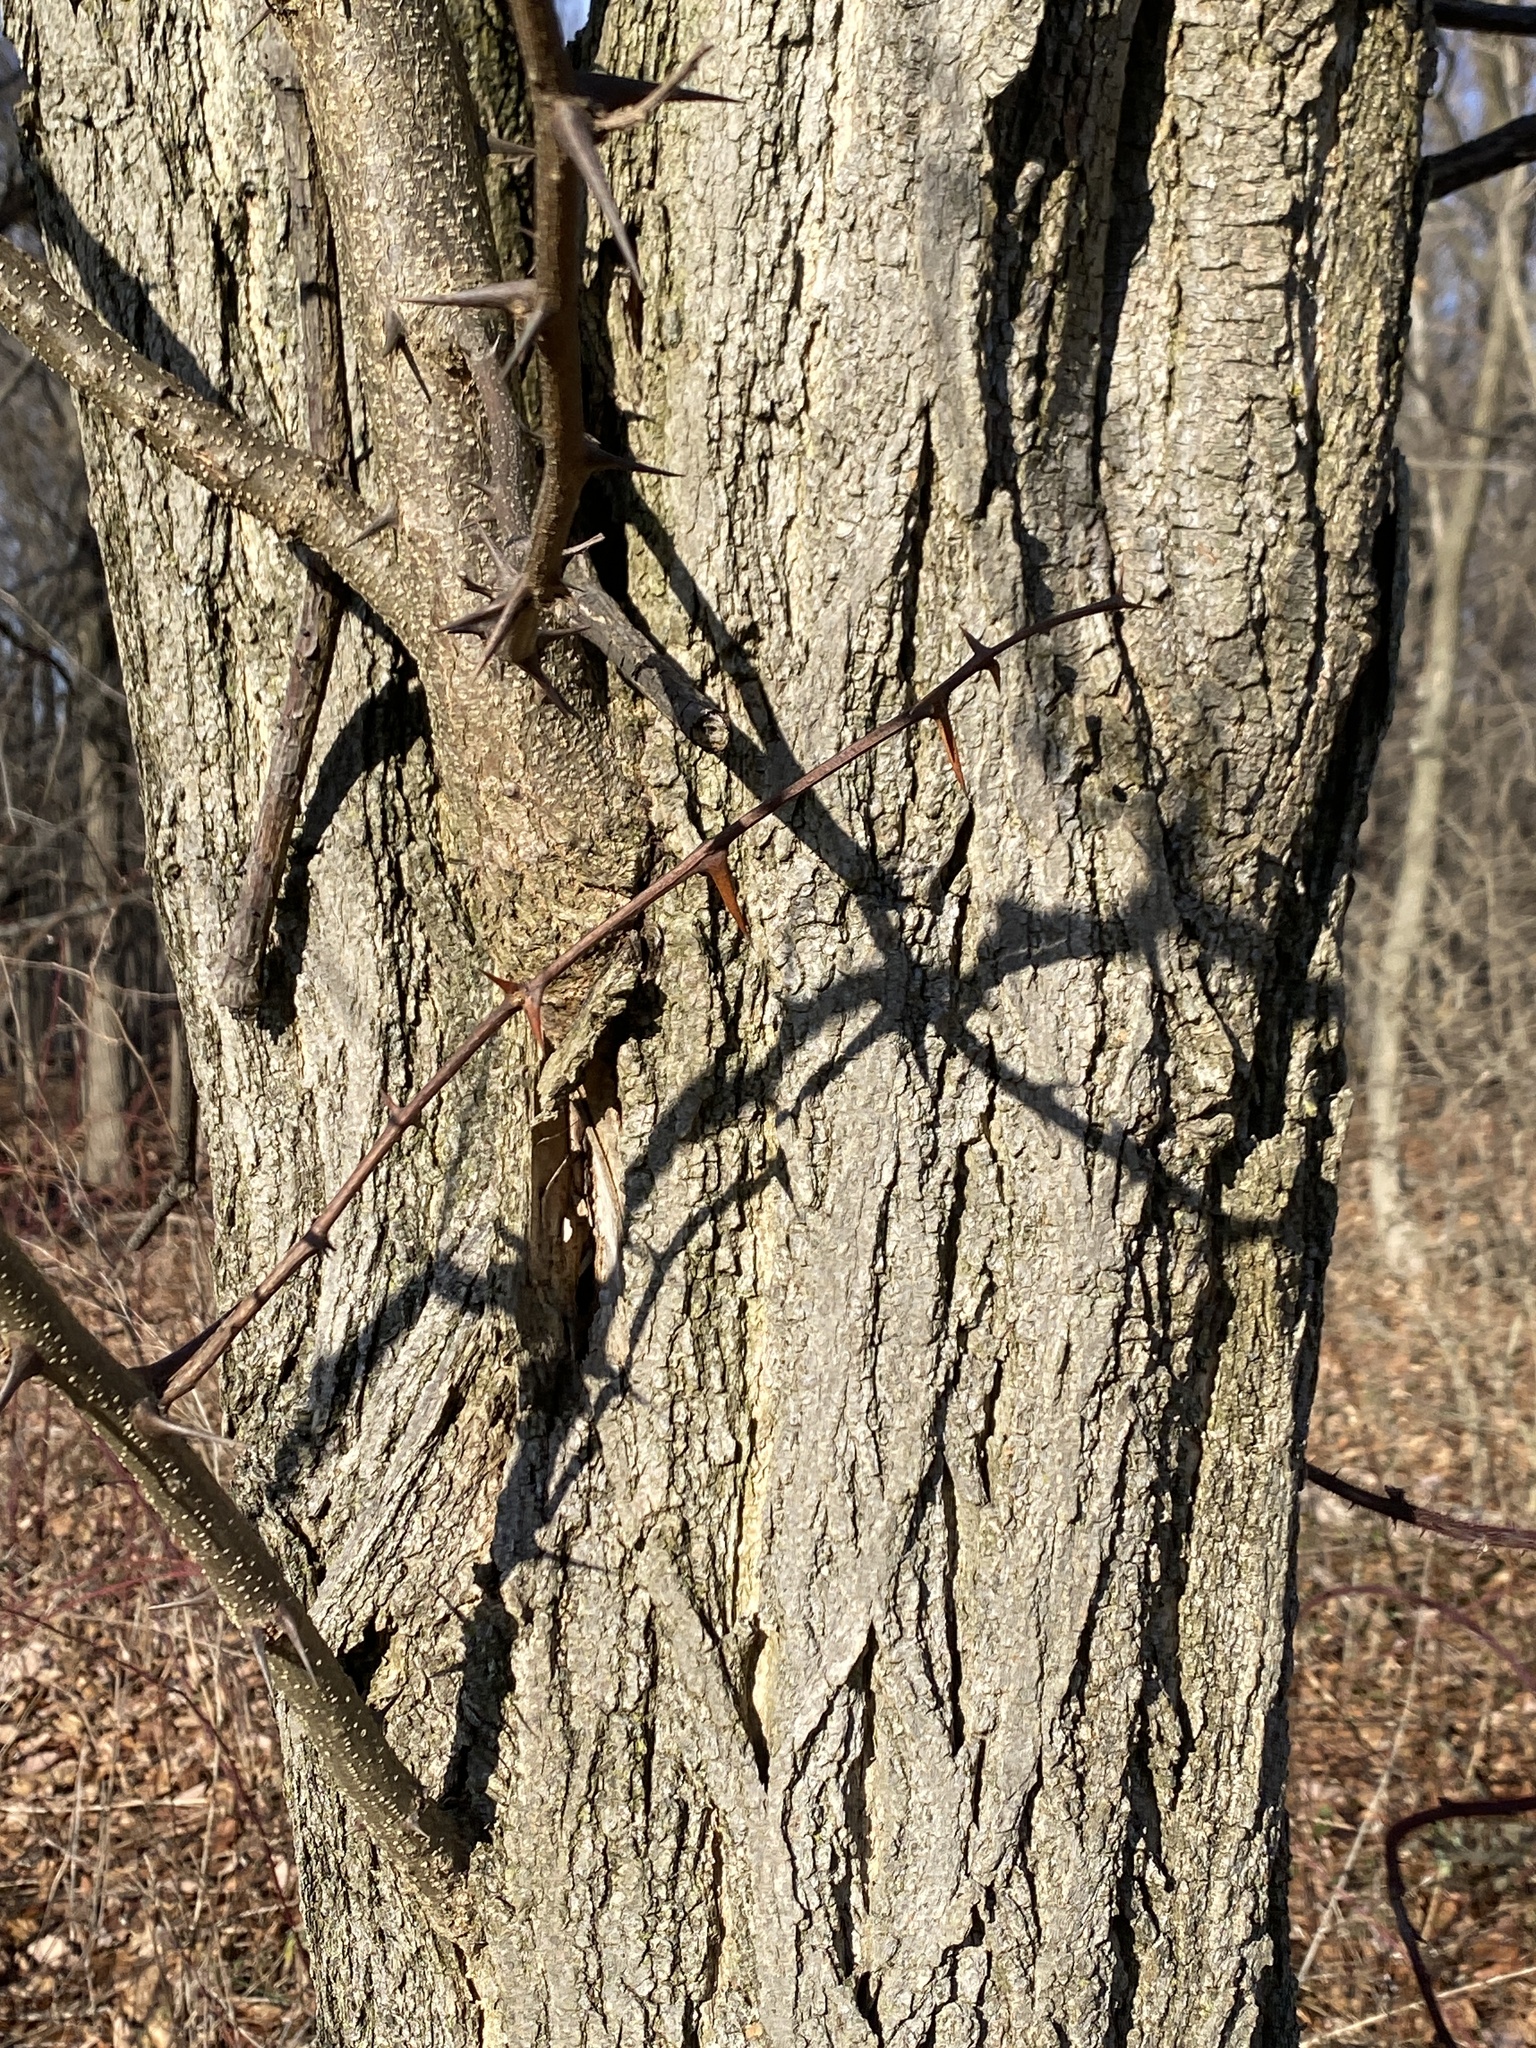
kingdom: Plantae
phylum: Tracheophyta
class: Magnoliopsida
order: Fabales
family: Fabaceae
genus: Robinia
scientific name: Robinia pseudoacacia
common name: Black locust
